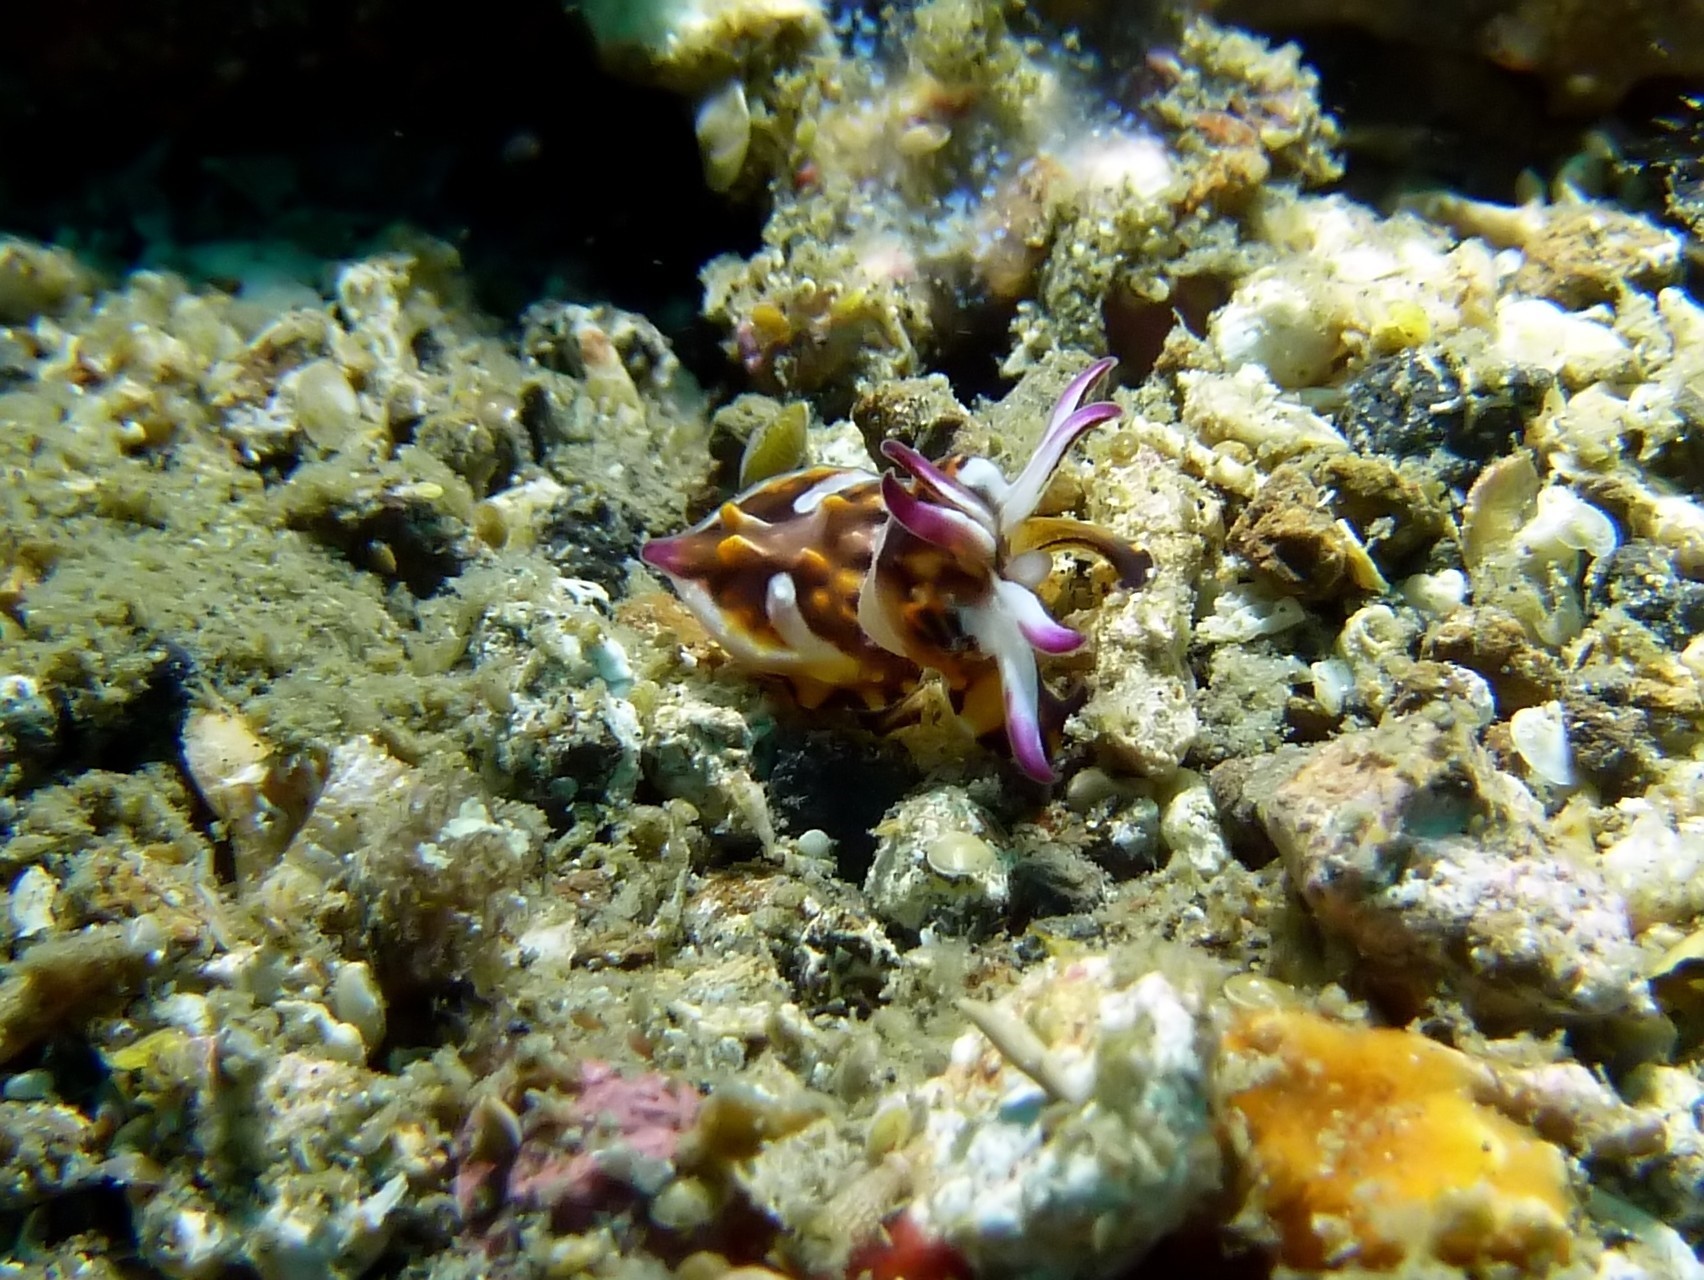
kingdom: Animalia
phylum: Mollusca
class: Cephalopoda
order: Sepiida
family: Sepiidae
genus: Ascarosepion
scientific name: Ascarosepion pfefferi
